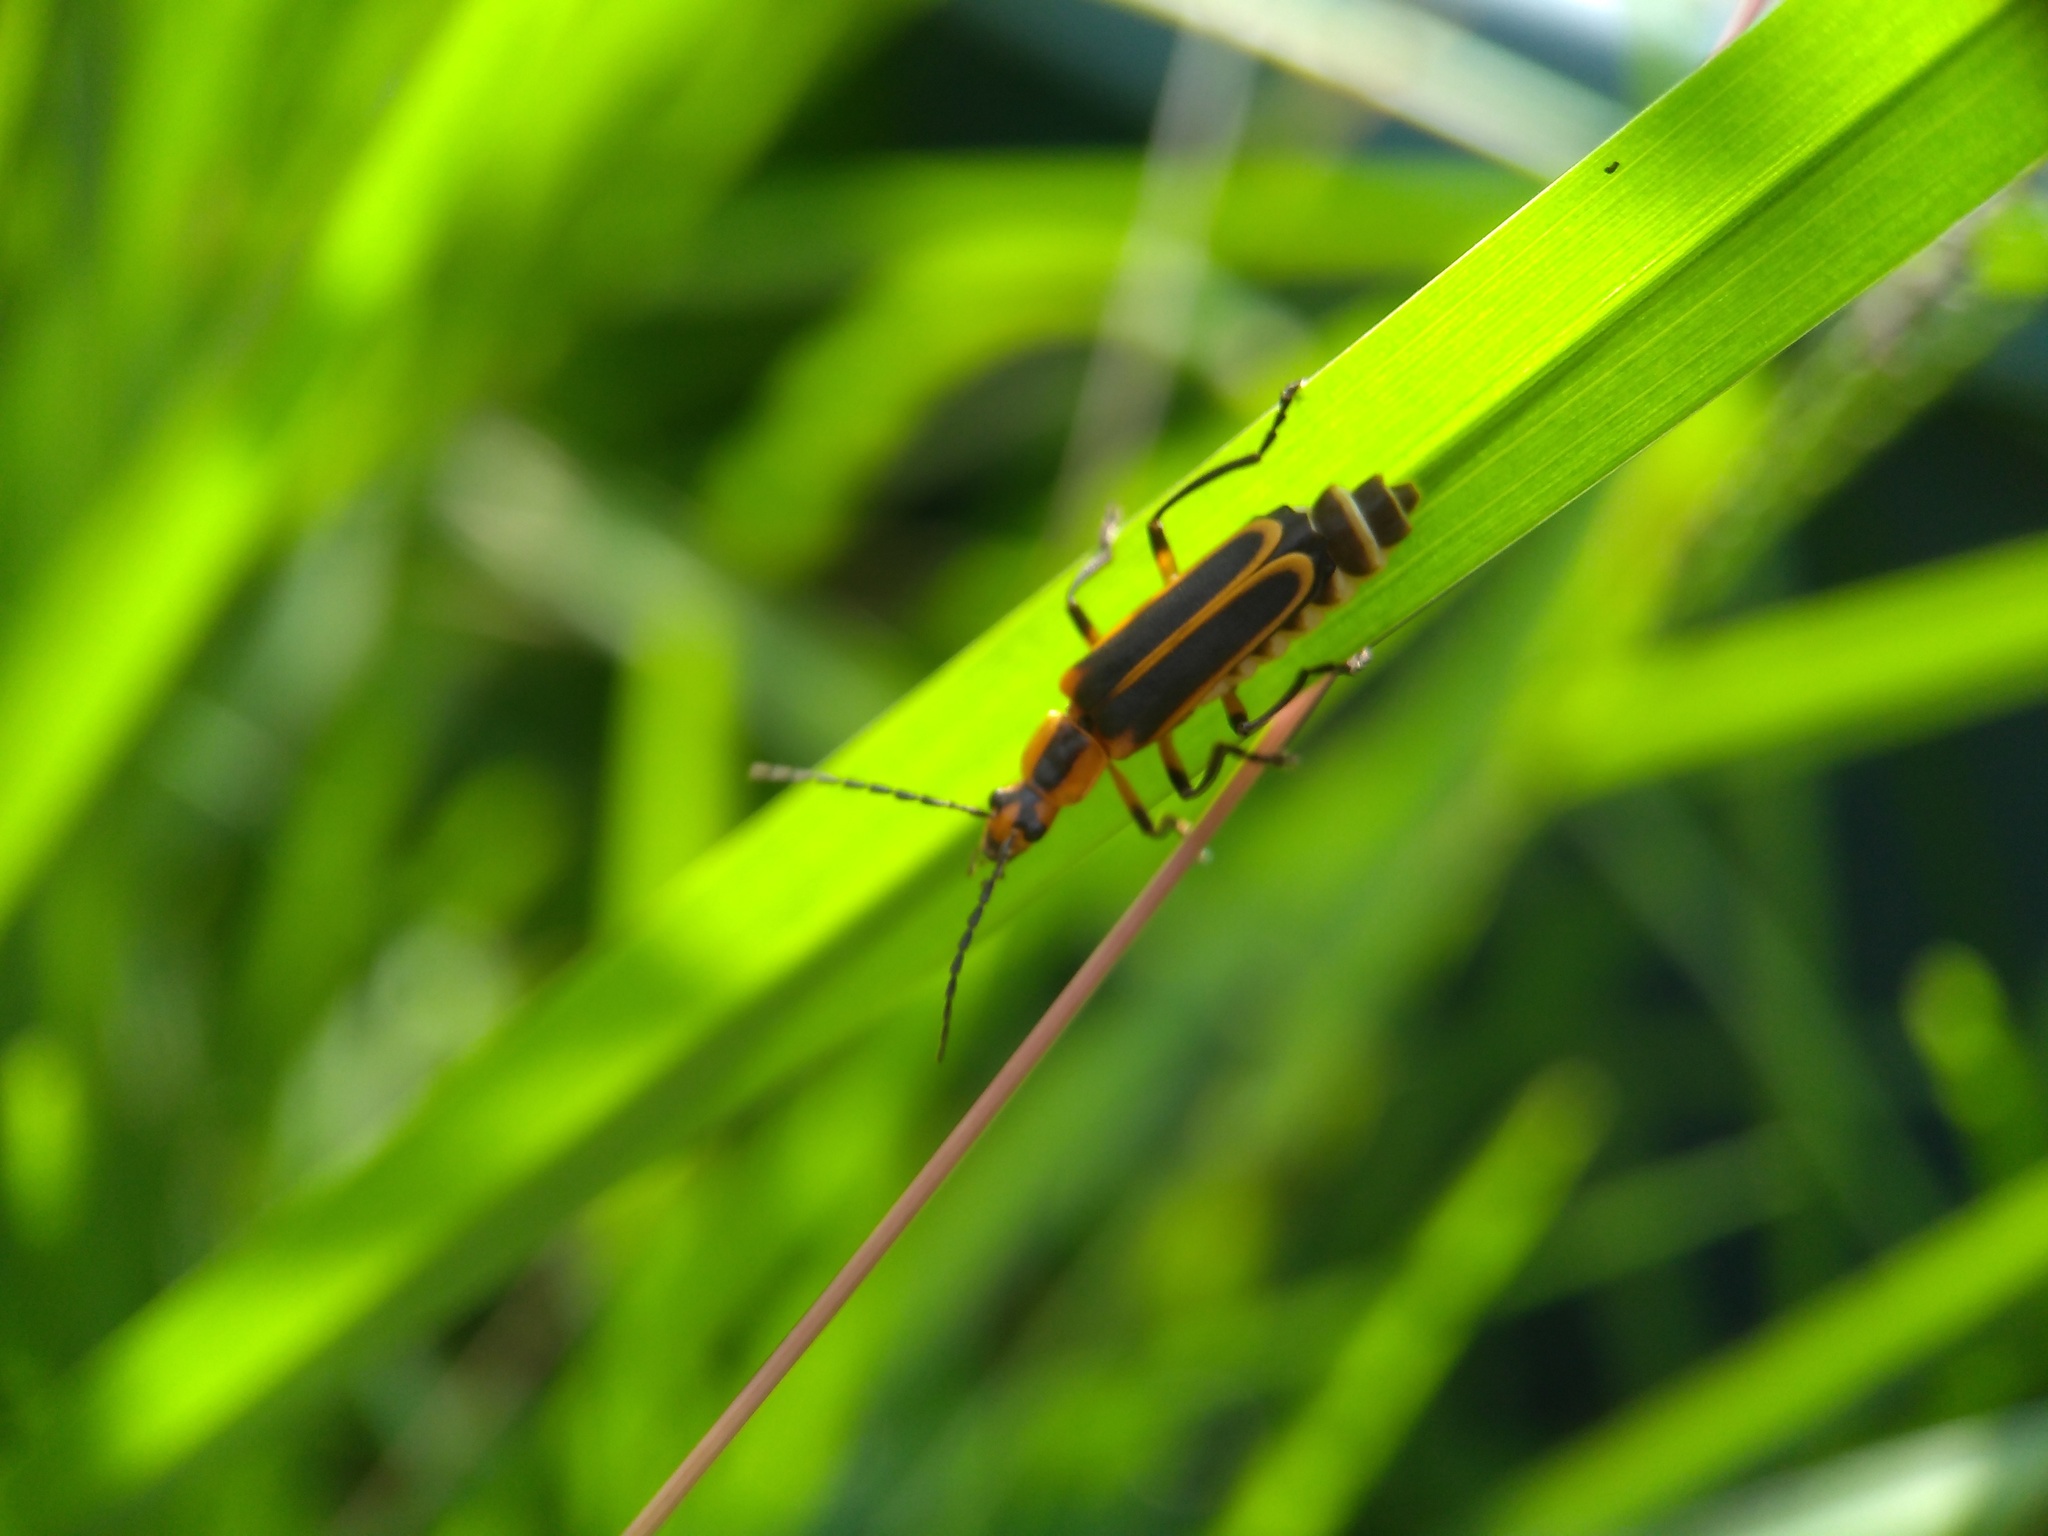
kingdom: Animalia
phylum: Arthropoda
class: Insecta
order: Coleoptera
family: Cantharidae
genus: Chauliognathus
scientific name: Chauliognathus marginatus
